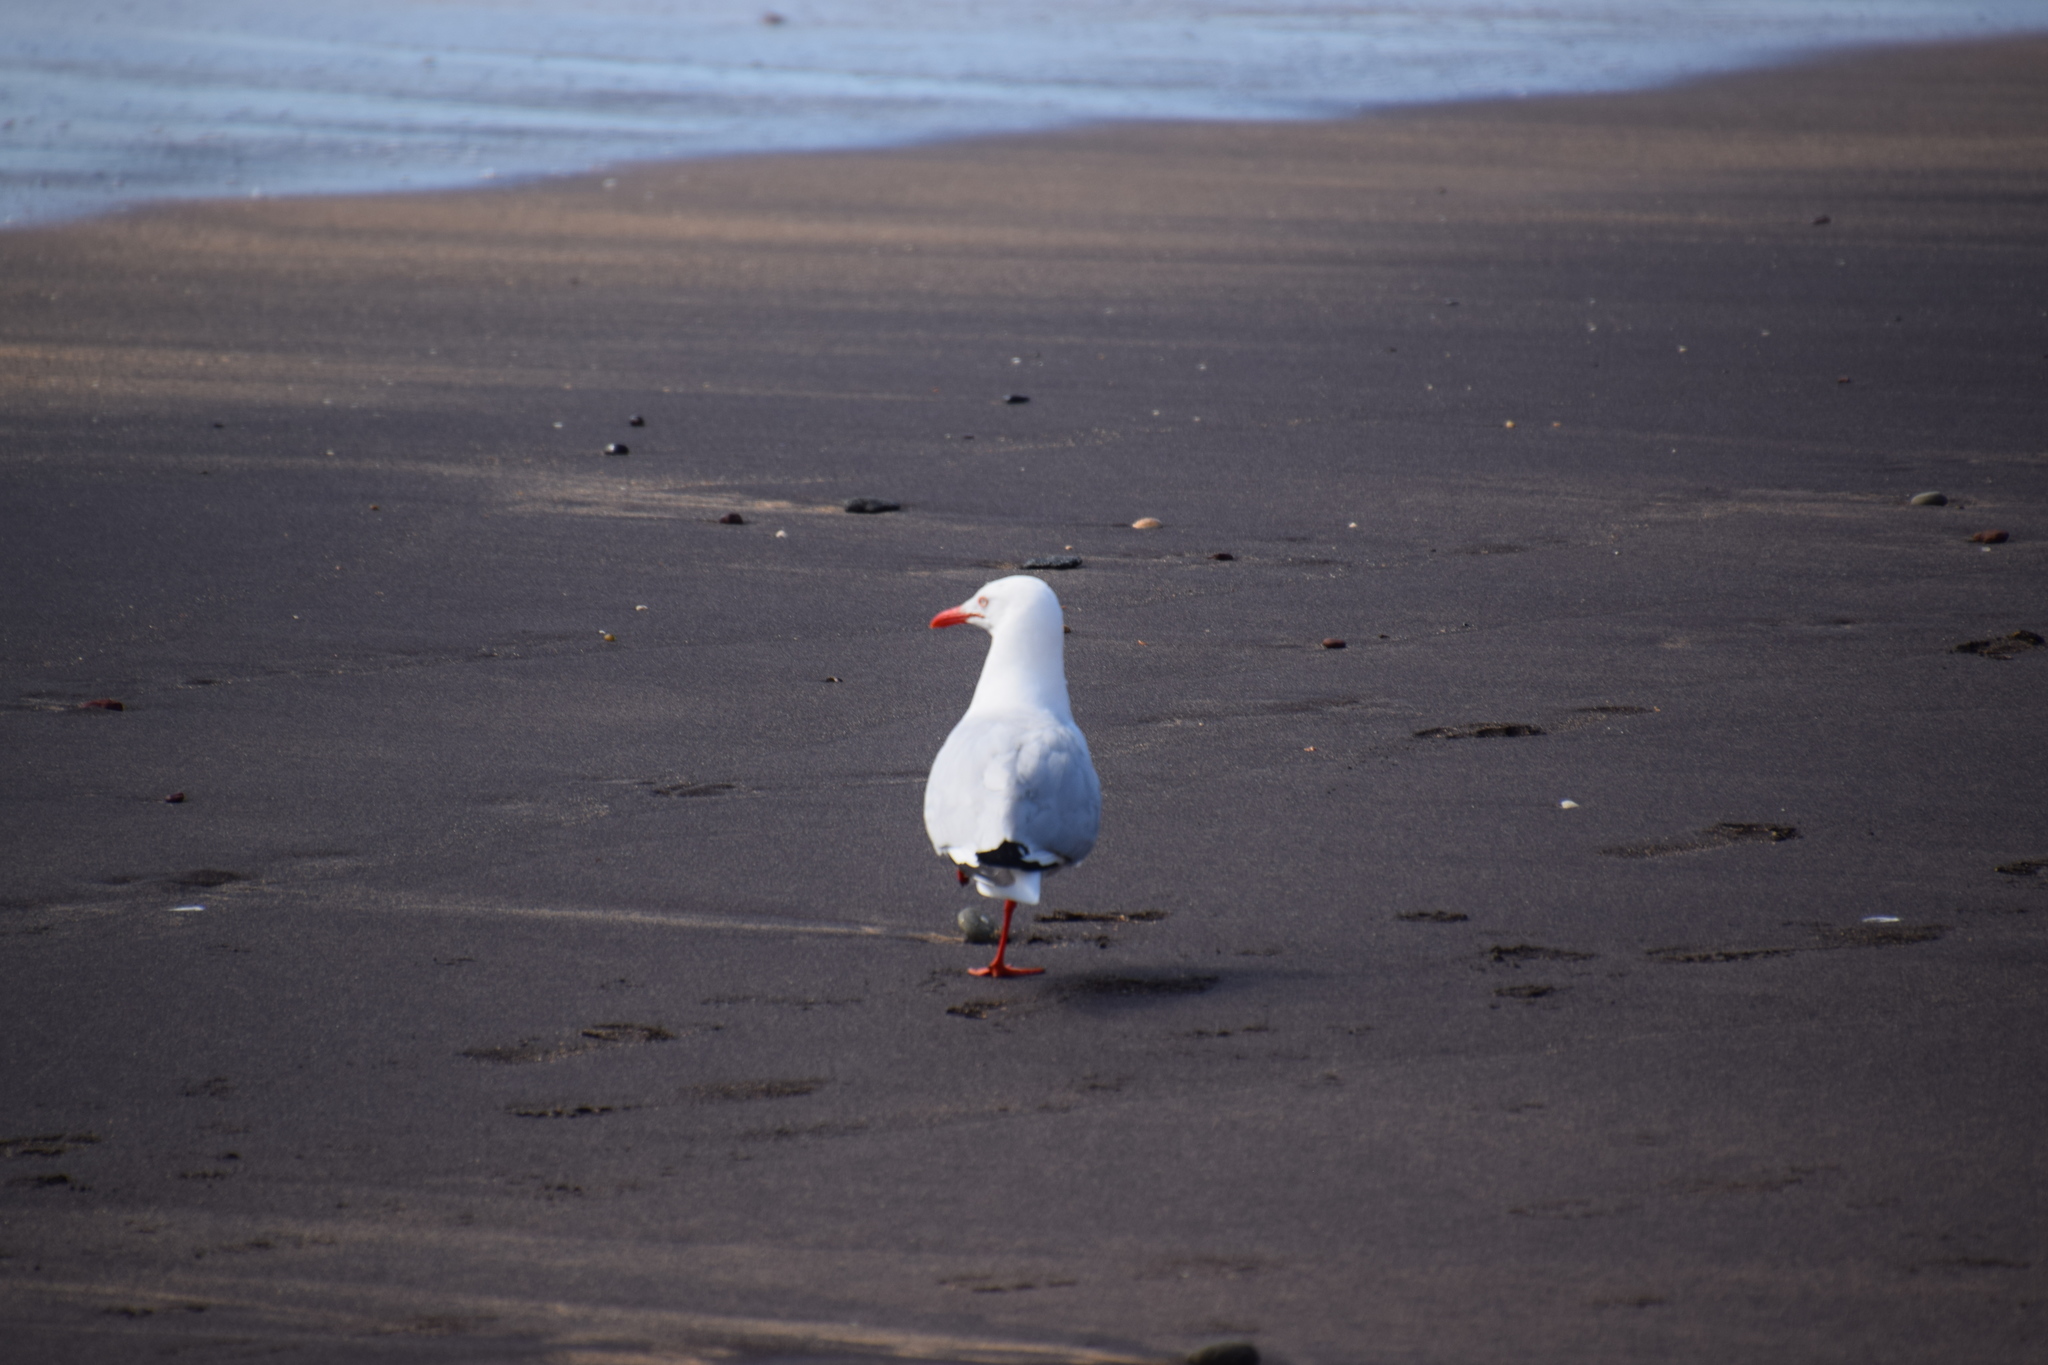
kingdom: Animalia
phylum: Chordata
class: Aves
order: Charadriiformes
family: Laridae
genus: Chroicocephalus
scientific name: Chroicocephalus novaehollandiae
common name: Silver gull
